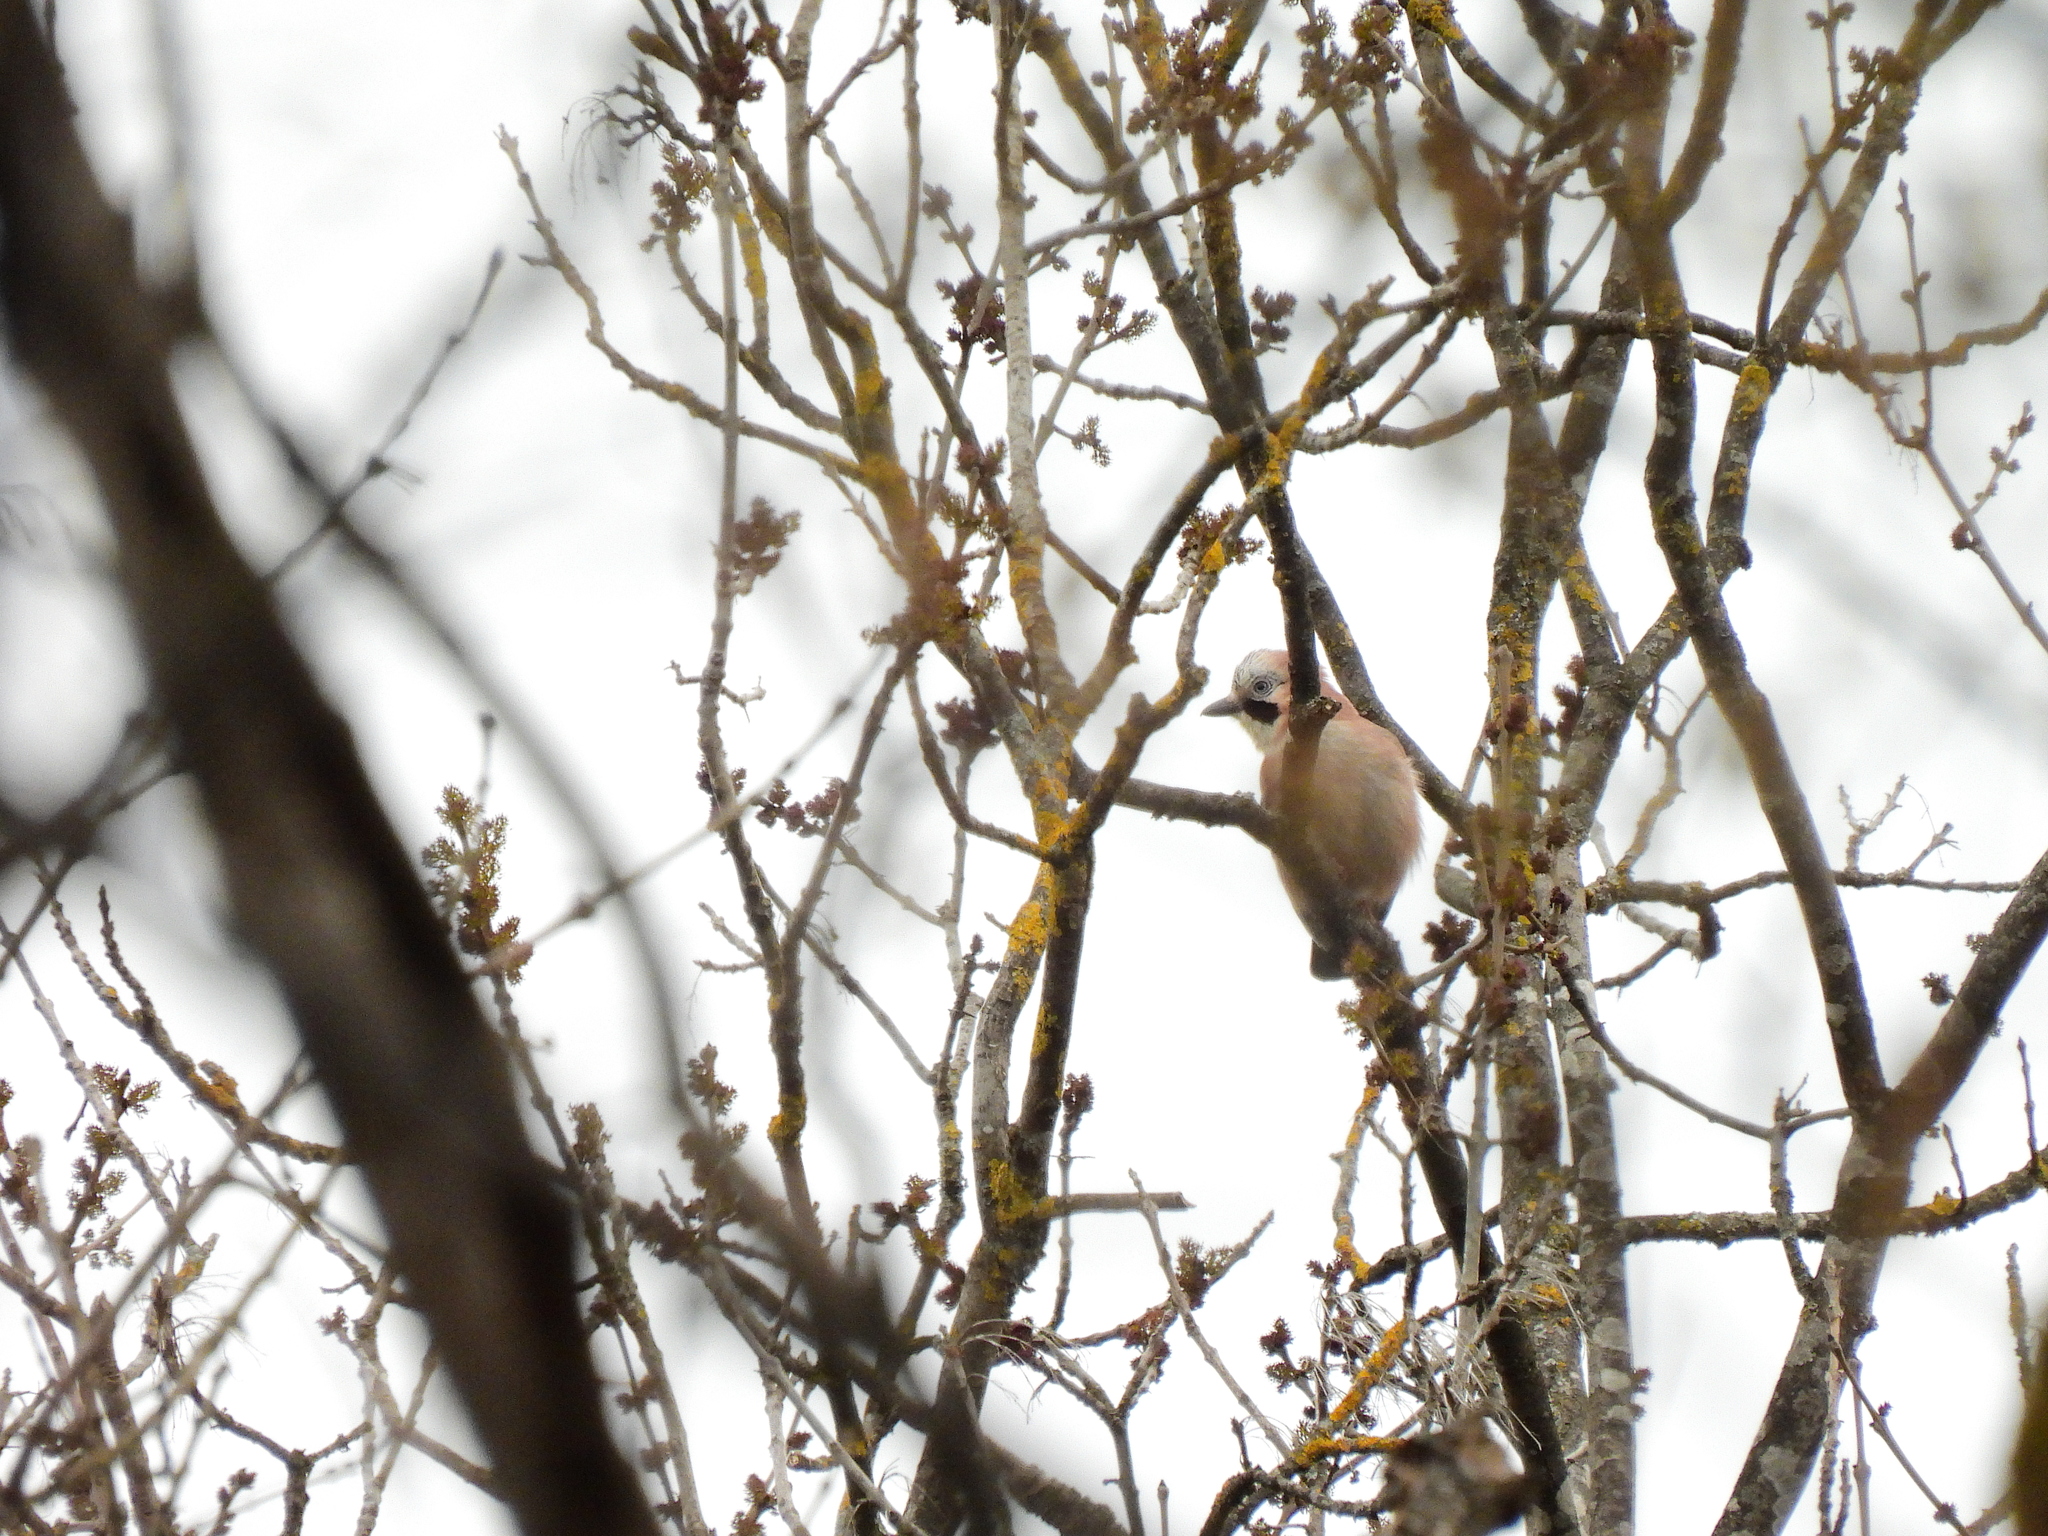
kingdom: Animalia
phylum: Chordata
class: Aves
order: Passeriformes
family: Corvidae
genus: Garrulus
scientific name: Garrulus glandarius
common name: Eurasian jay
